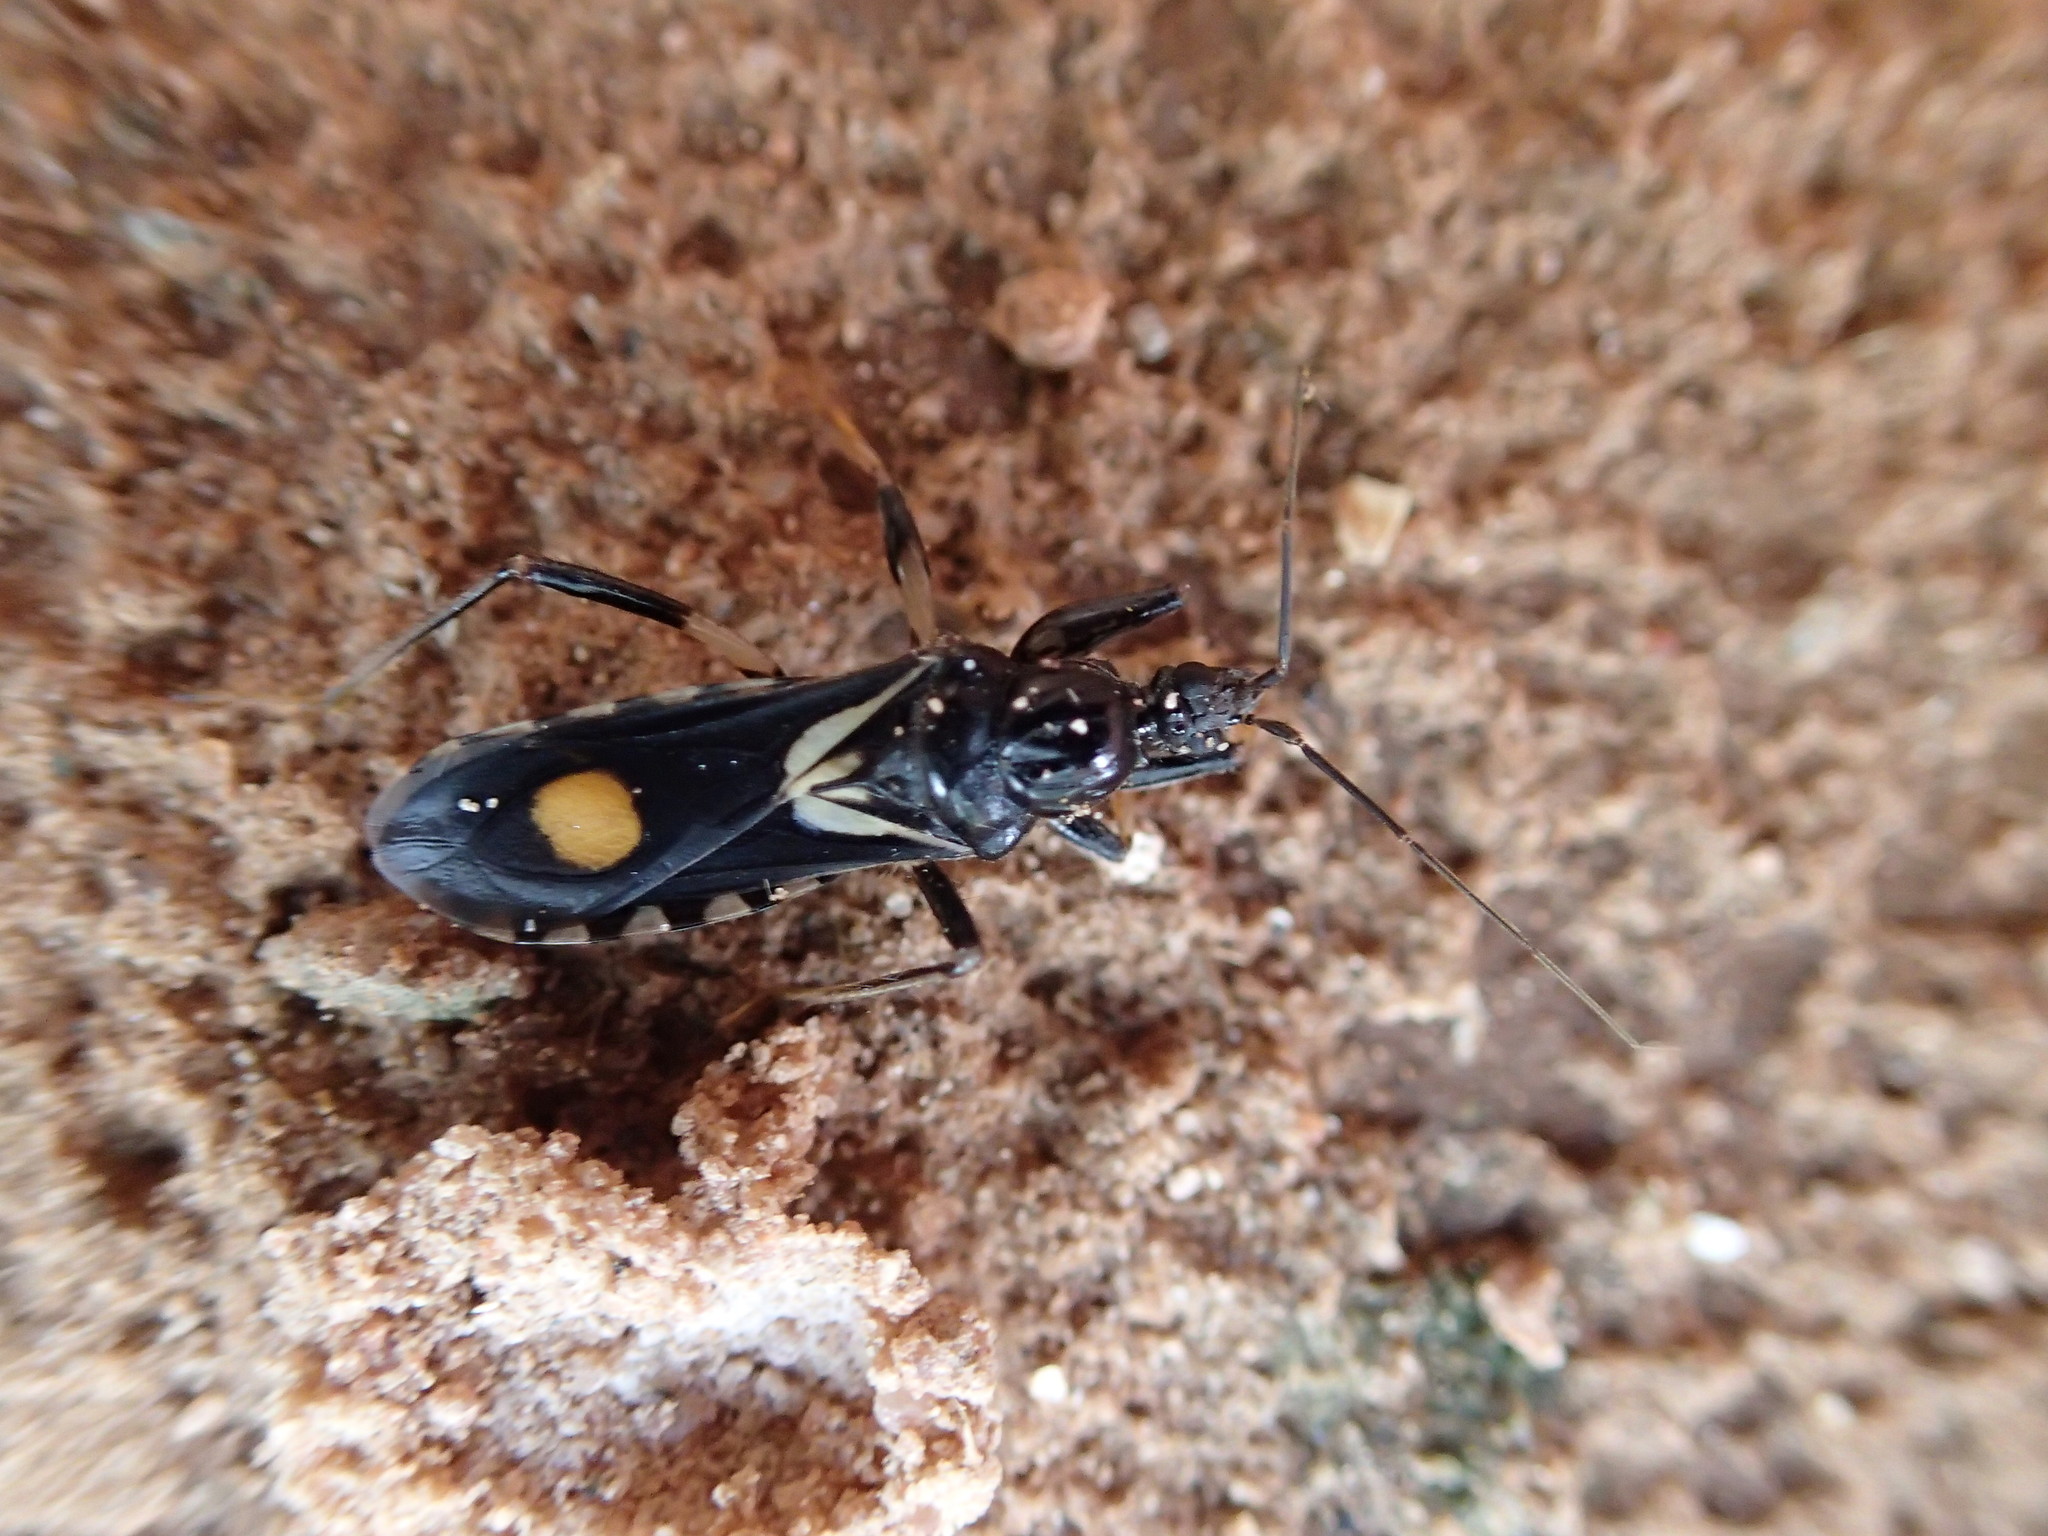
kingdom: Animalia
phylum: Arthropoda
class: Insecta
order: Hemiptera
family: Reduviidae
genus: Rasahus
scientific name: Rasahus hamatus
